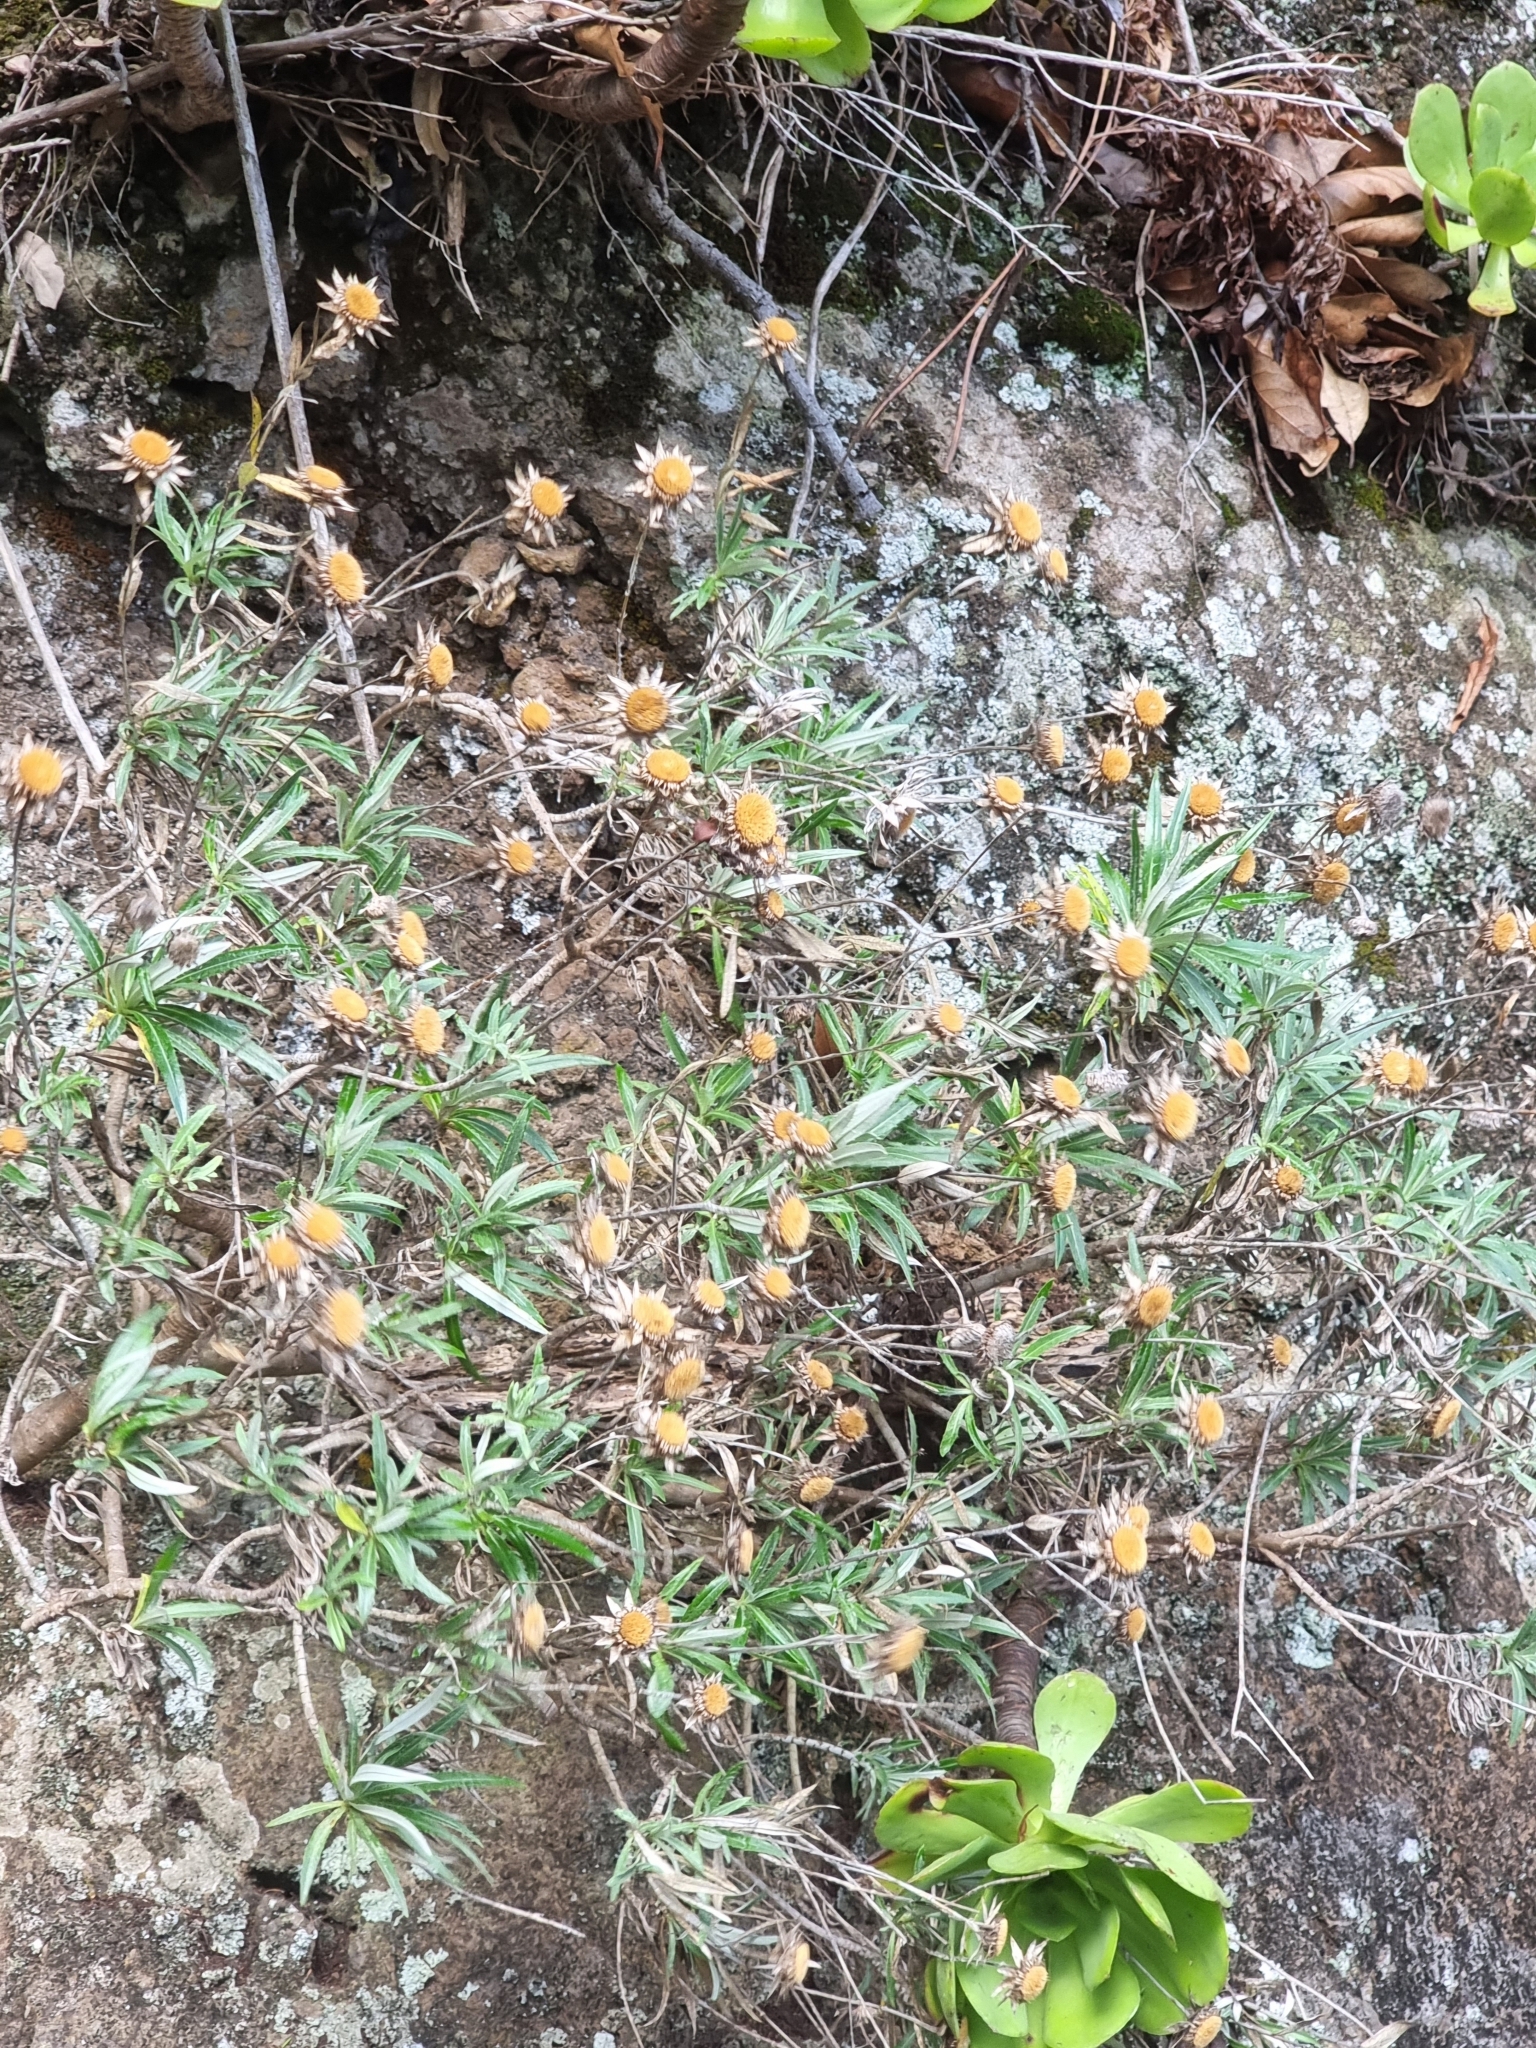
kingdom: Plantae
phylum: Tracheophyta
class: Magnoliopsida
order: Asterales
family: Asteraceae
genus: Carlina
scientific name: Carlina salicifolia
